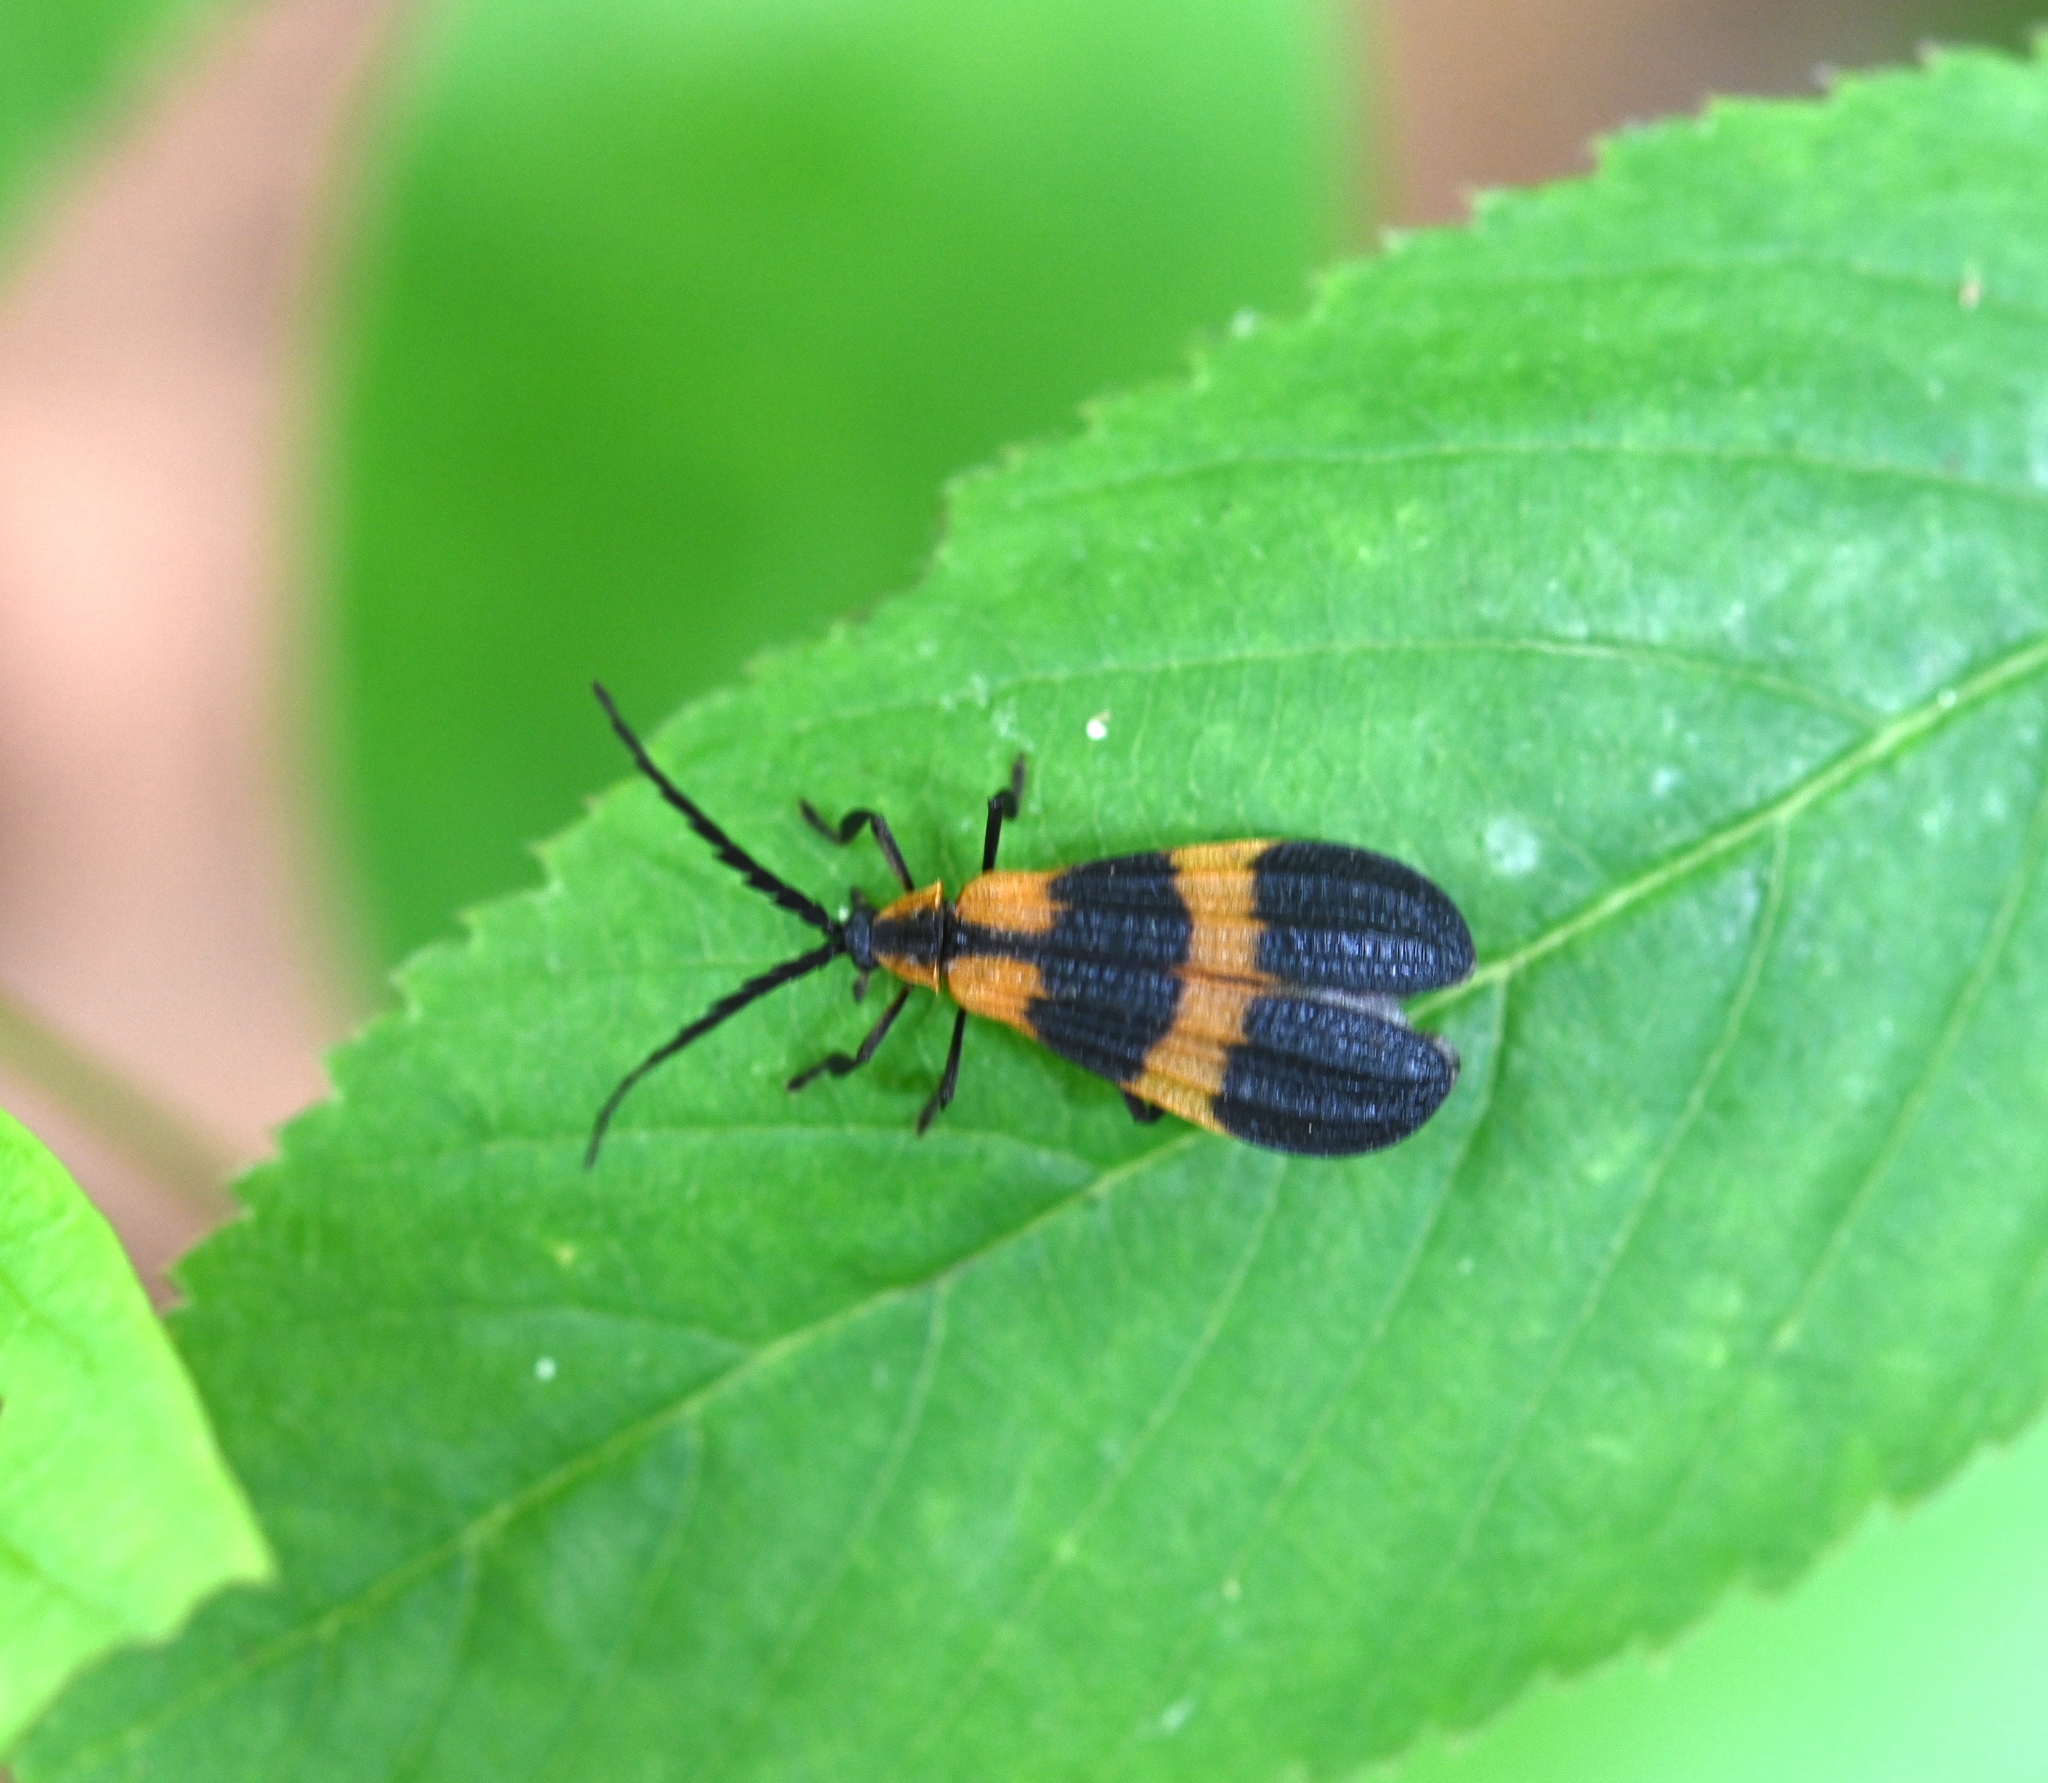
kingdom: Animalia
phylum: Arthropoda
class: Insecta
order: Coleoptera
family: Lycidae
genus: Calopteron
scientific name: Calopteron discrepans
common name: Banded net-winged beetle
